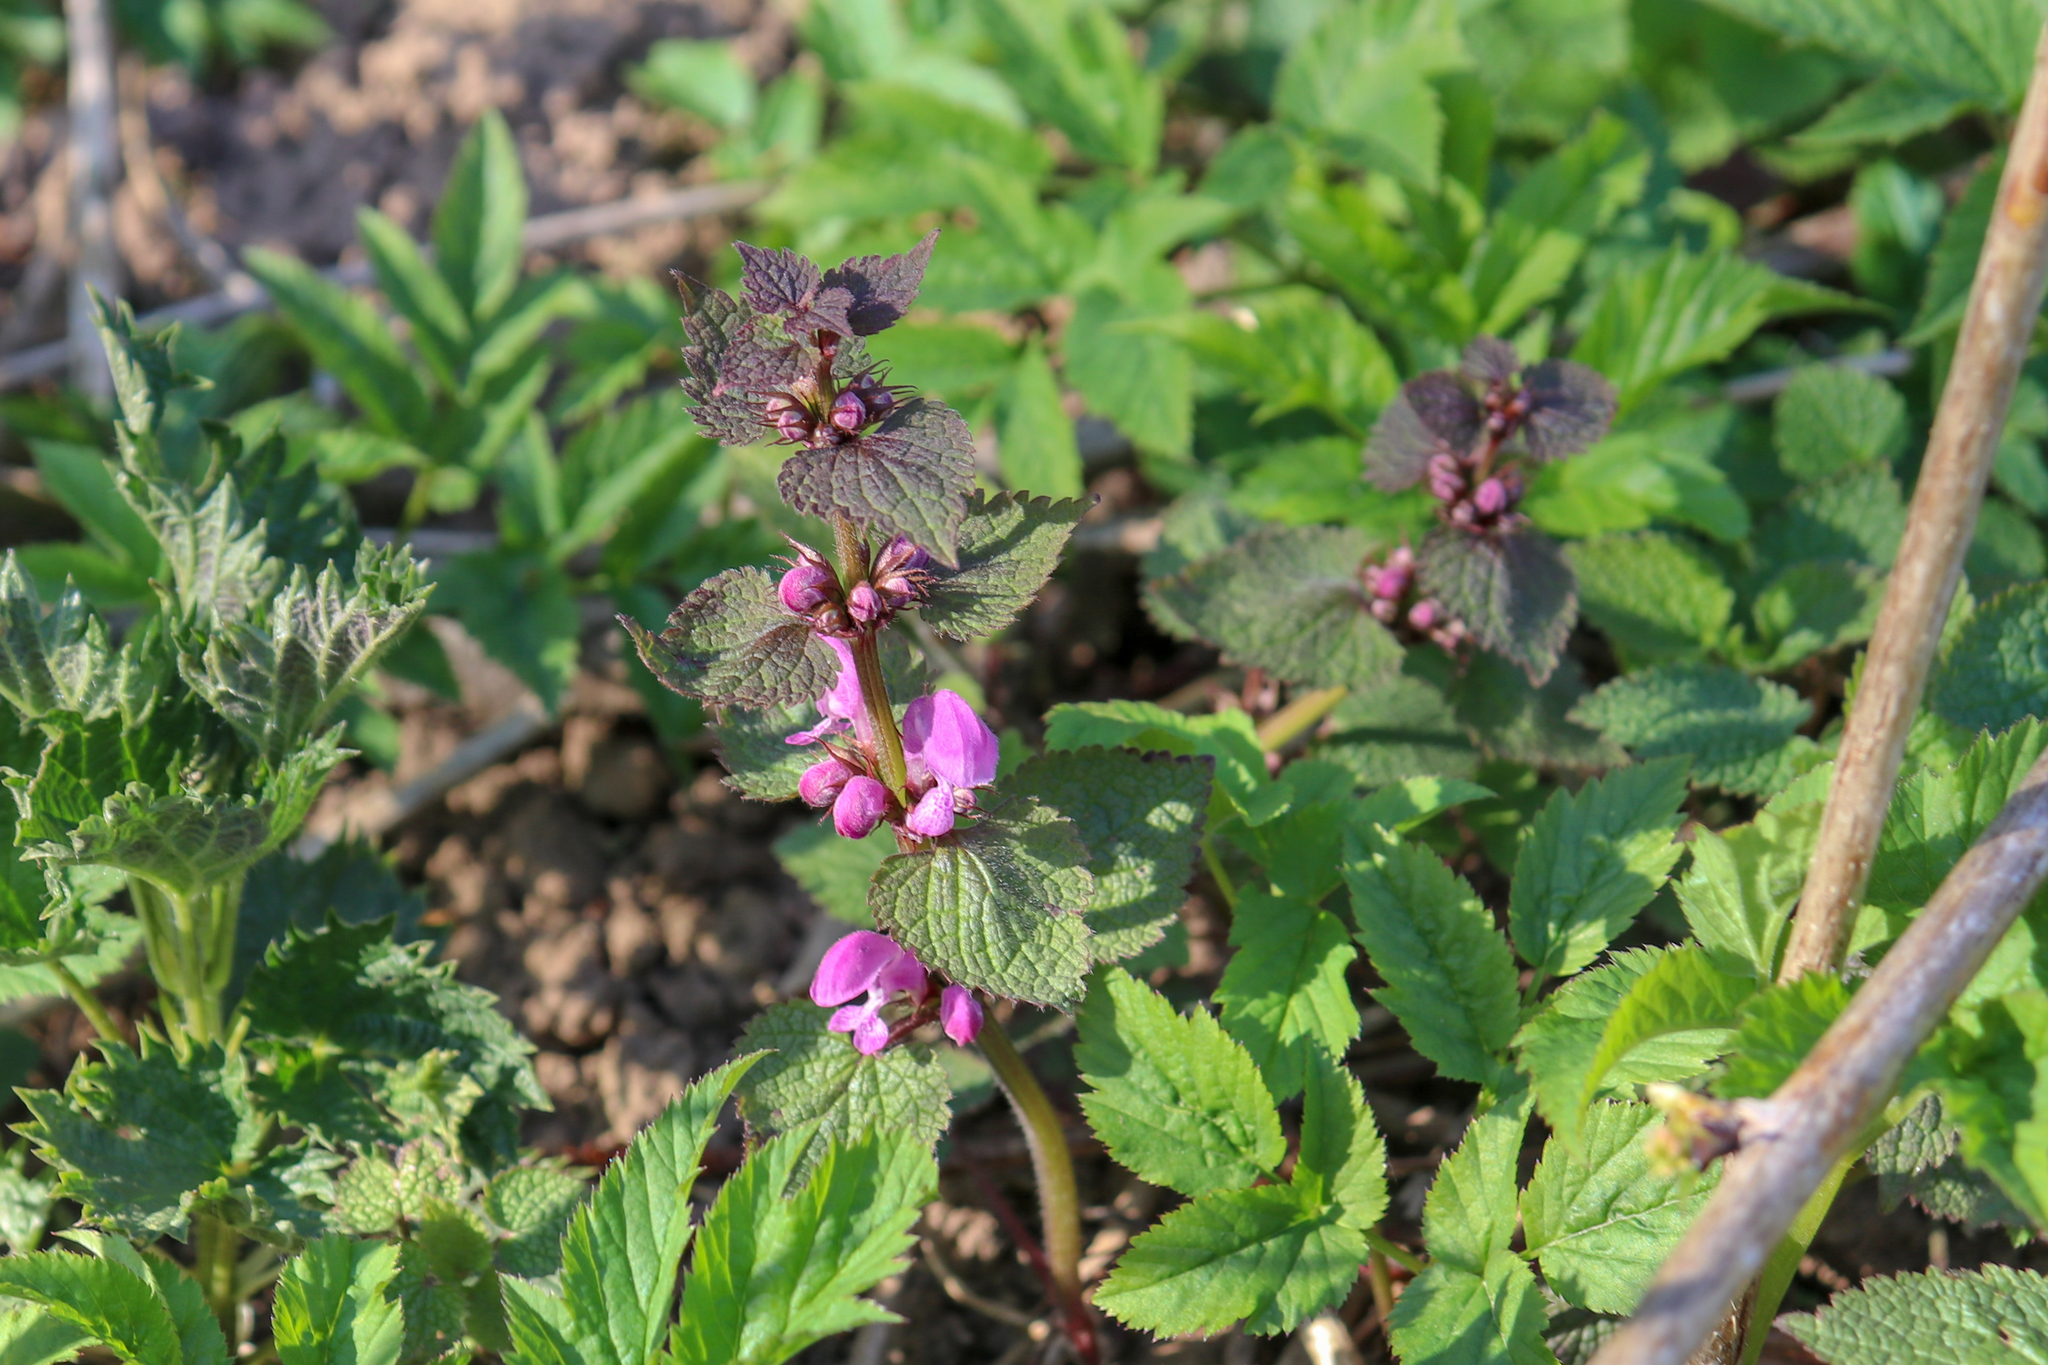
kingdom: Plantae
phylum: Tracheophyta
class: Magnoliopsida
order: Lamiales
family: Lamiaceae
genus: Lamium
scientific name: Lamium maculatum
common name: Spotted dead-nettle
